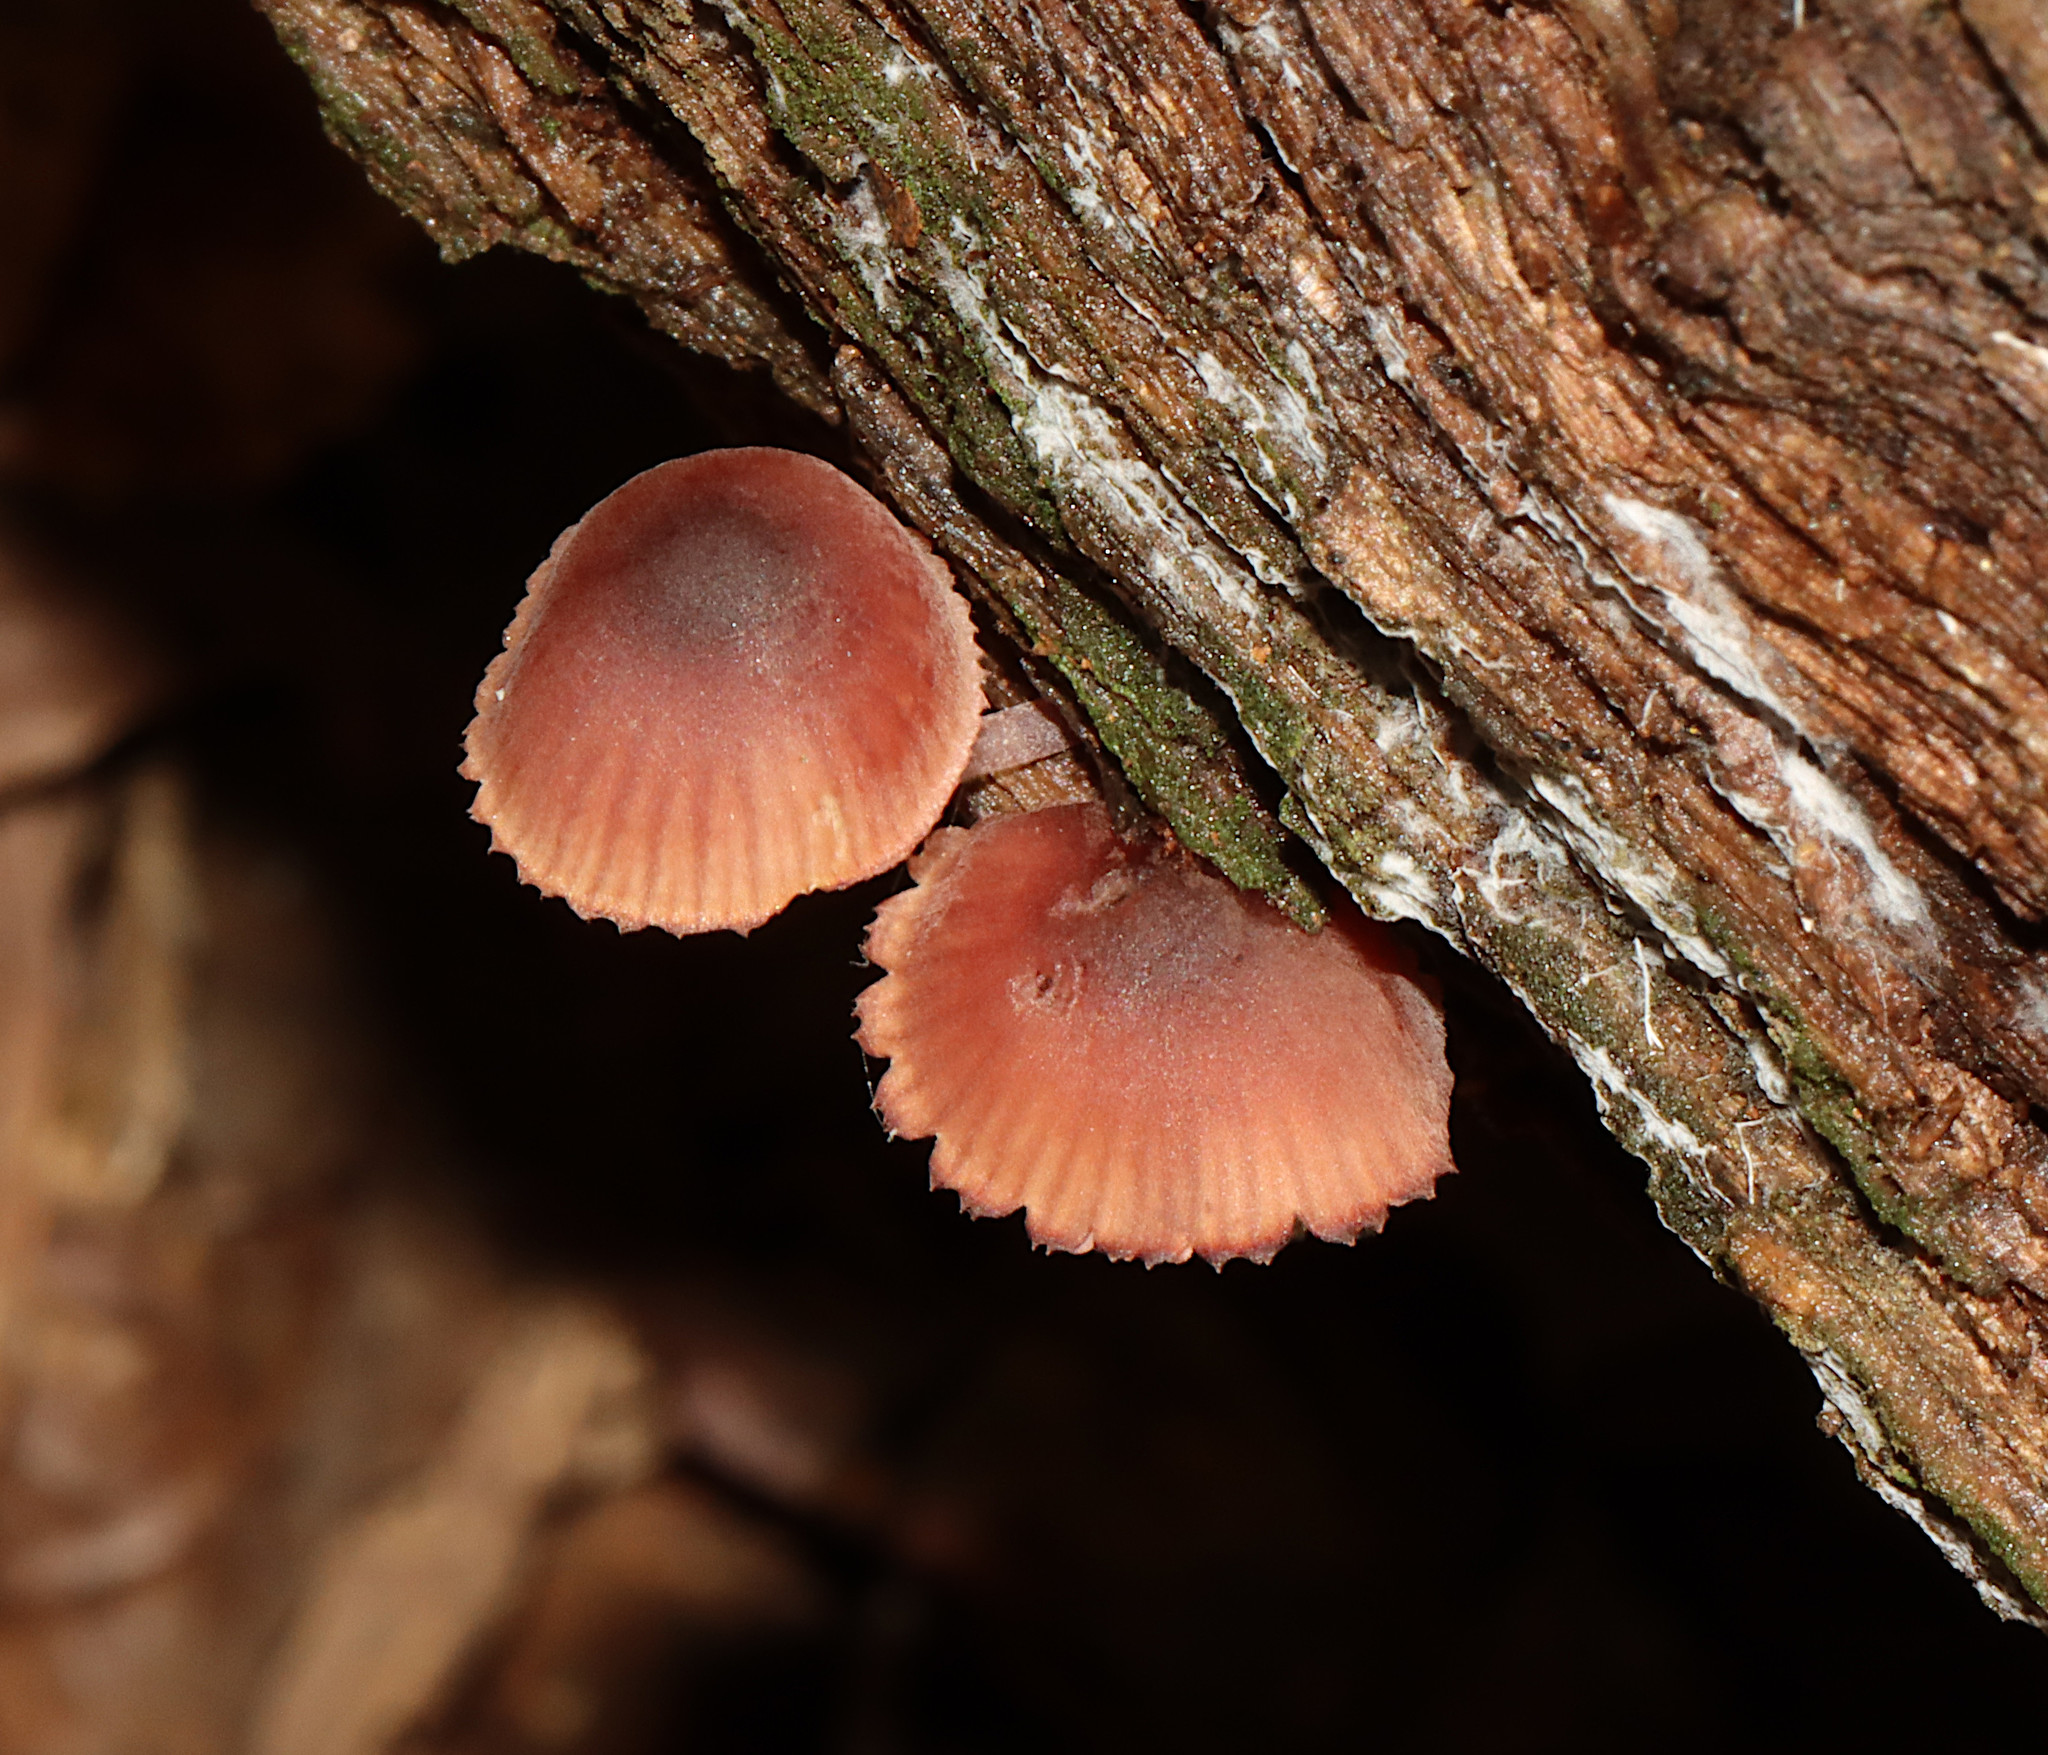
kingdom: Fungi
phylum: Basidiomycota
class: Agaricomycetes
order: Agaricales
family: Mycenaceae
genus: Mycena
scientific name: Mycena haematopus
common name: Burgundydrop bonnet
